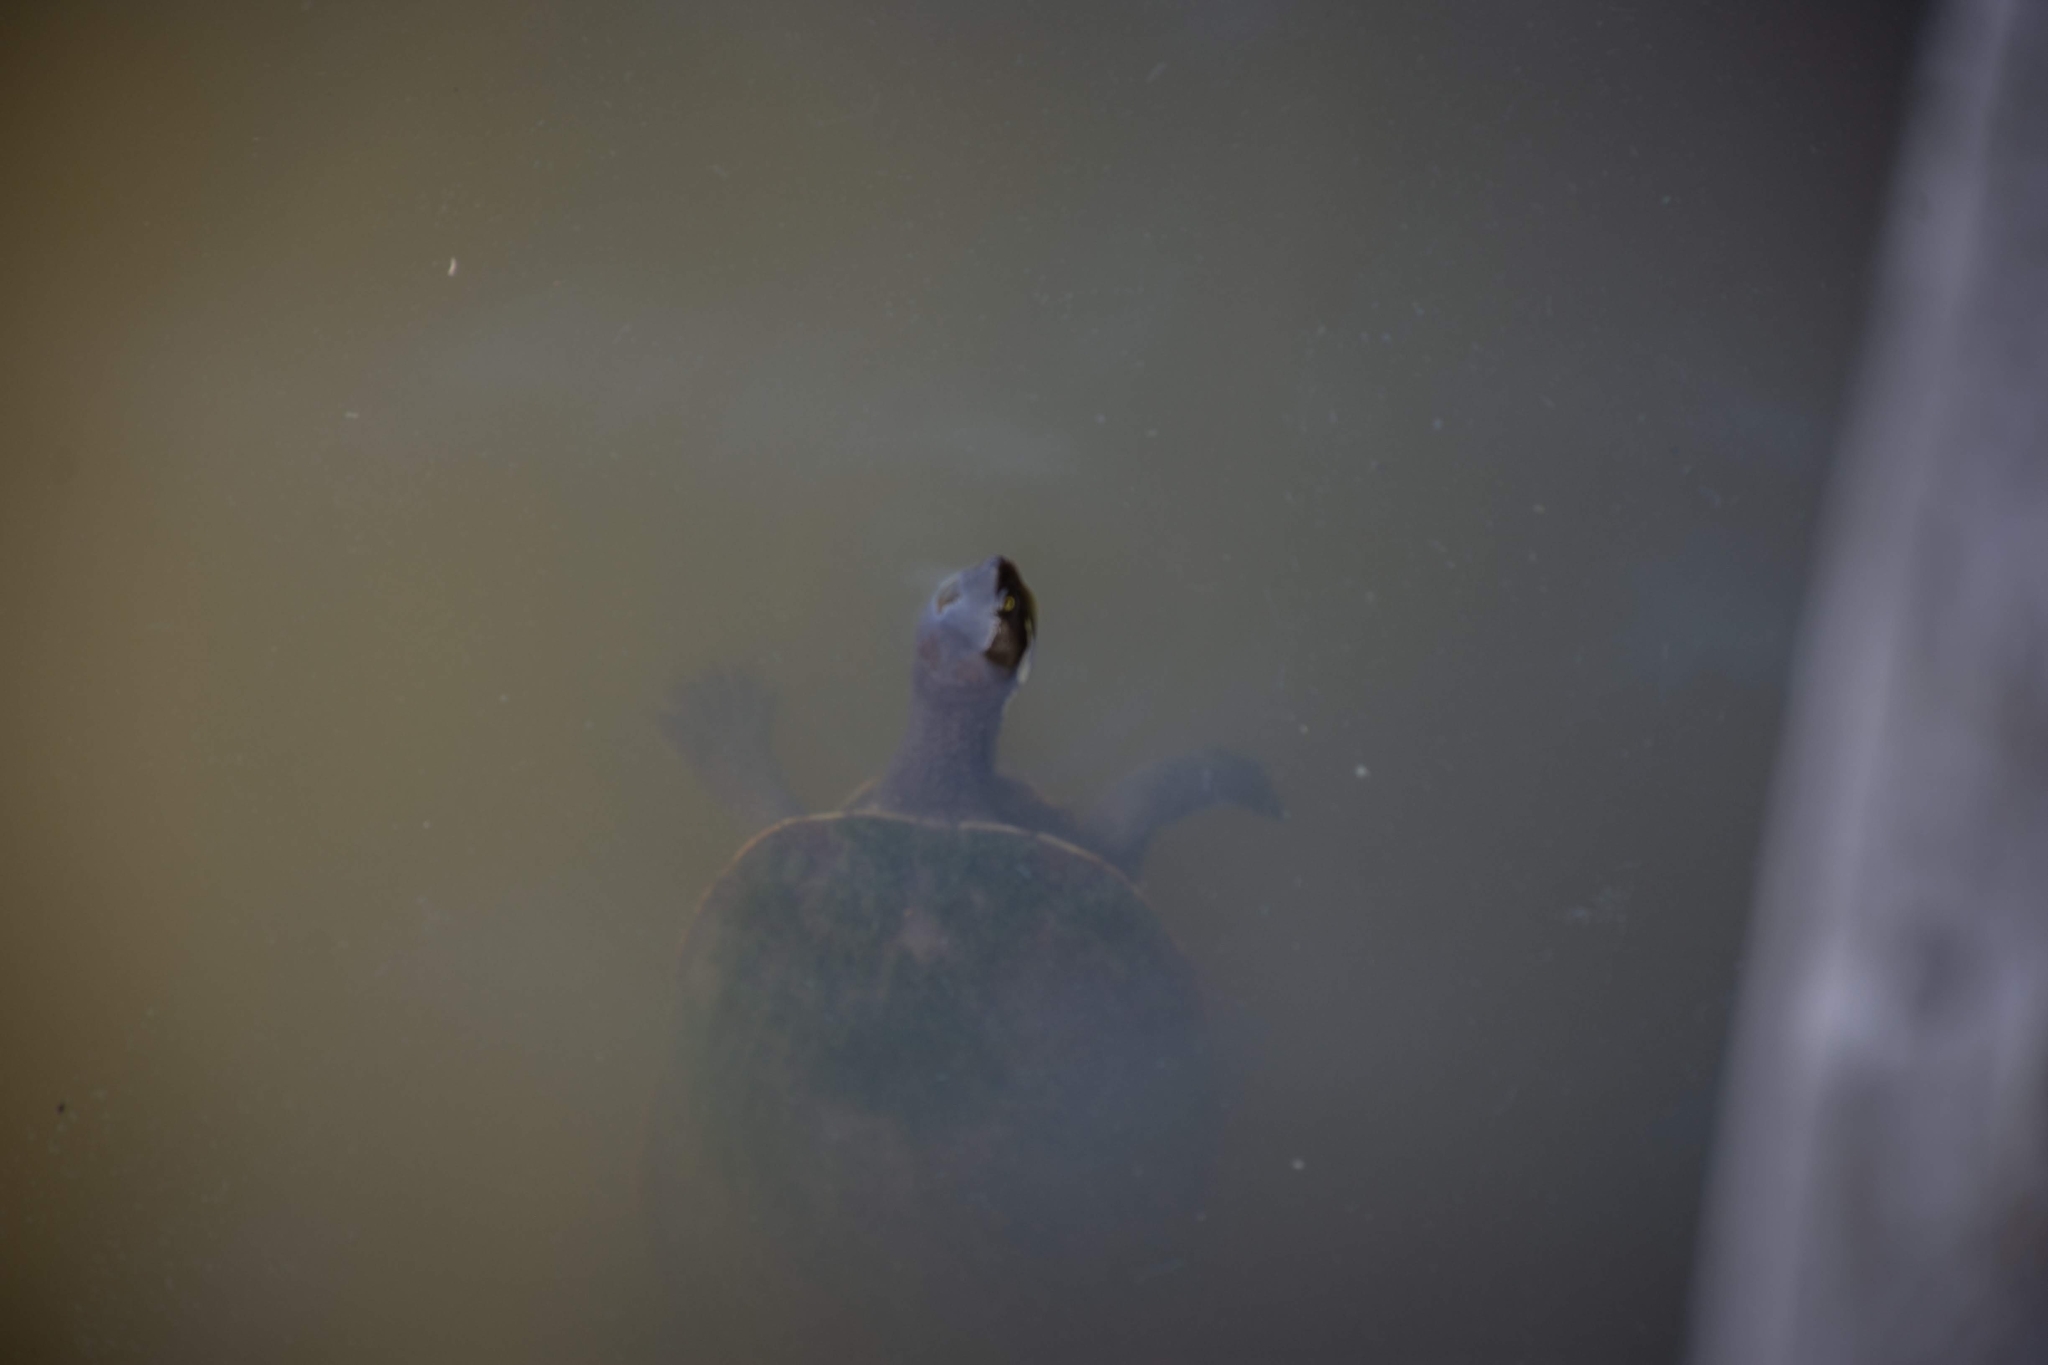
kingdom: Animalia
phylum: Chordata
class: Testudines
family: Chelidae
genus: Emydura
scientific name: Emydura macquarii
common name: Murray river turtle
